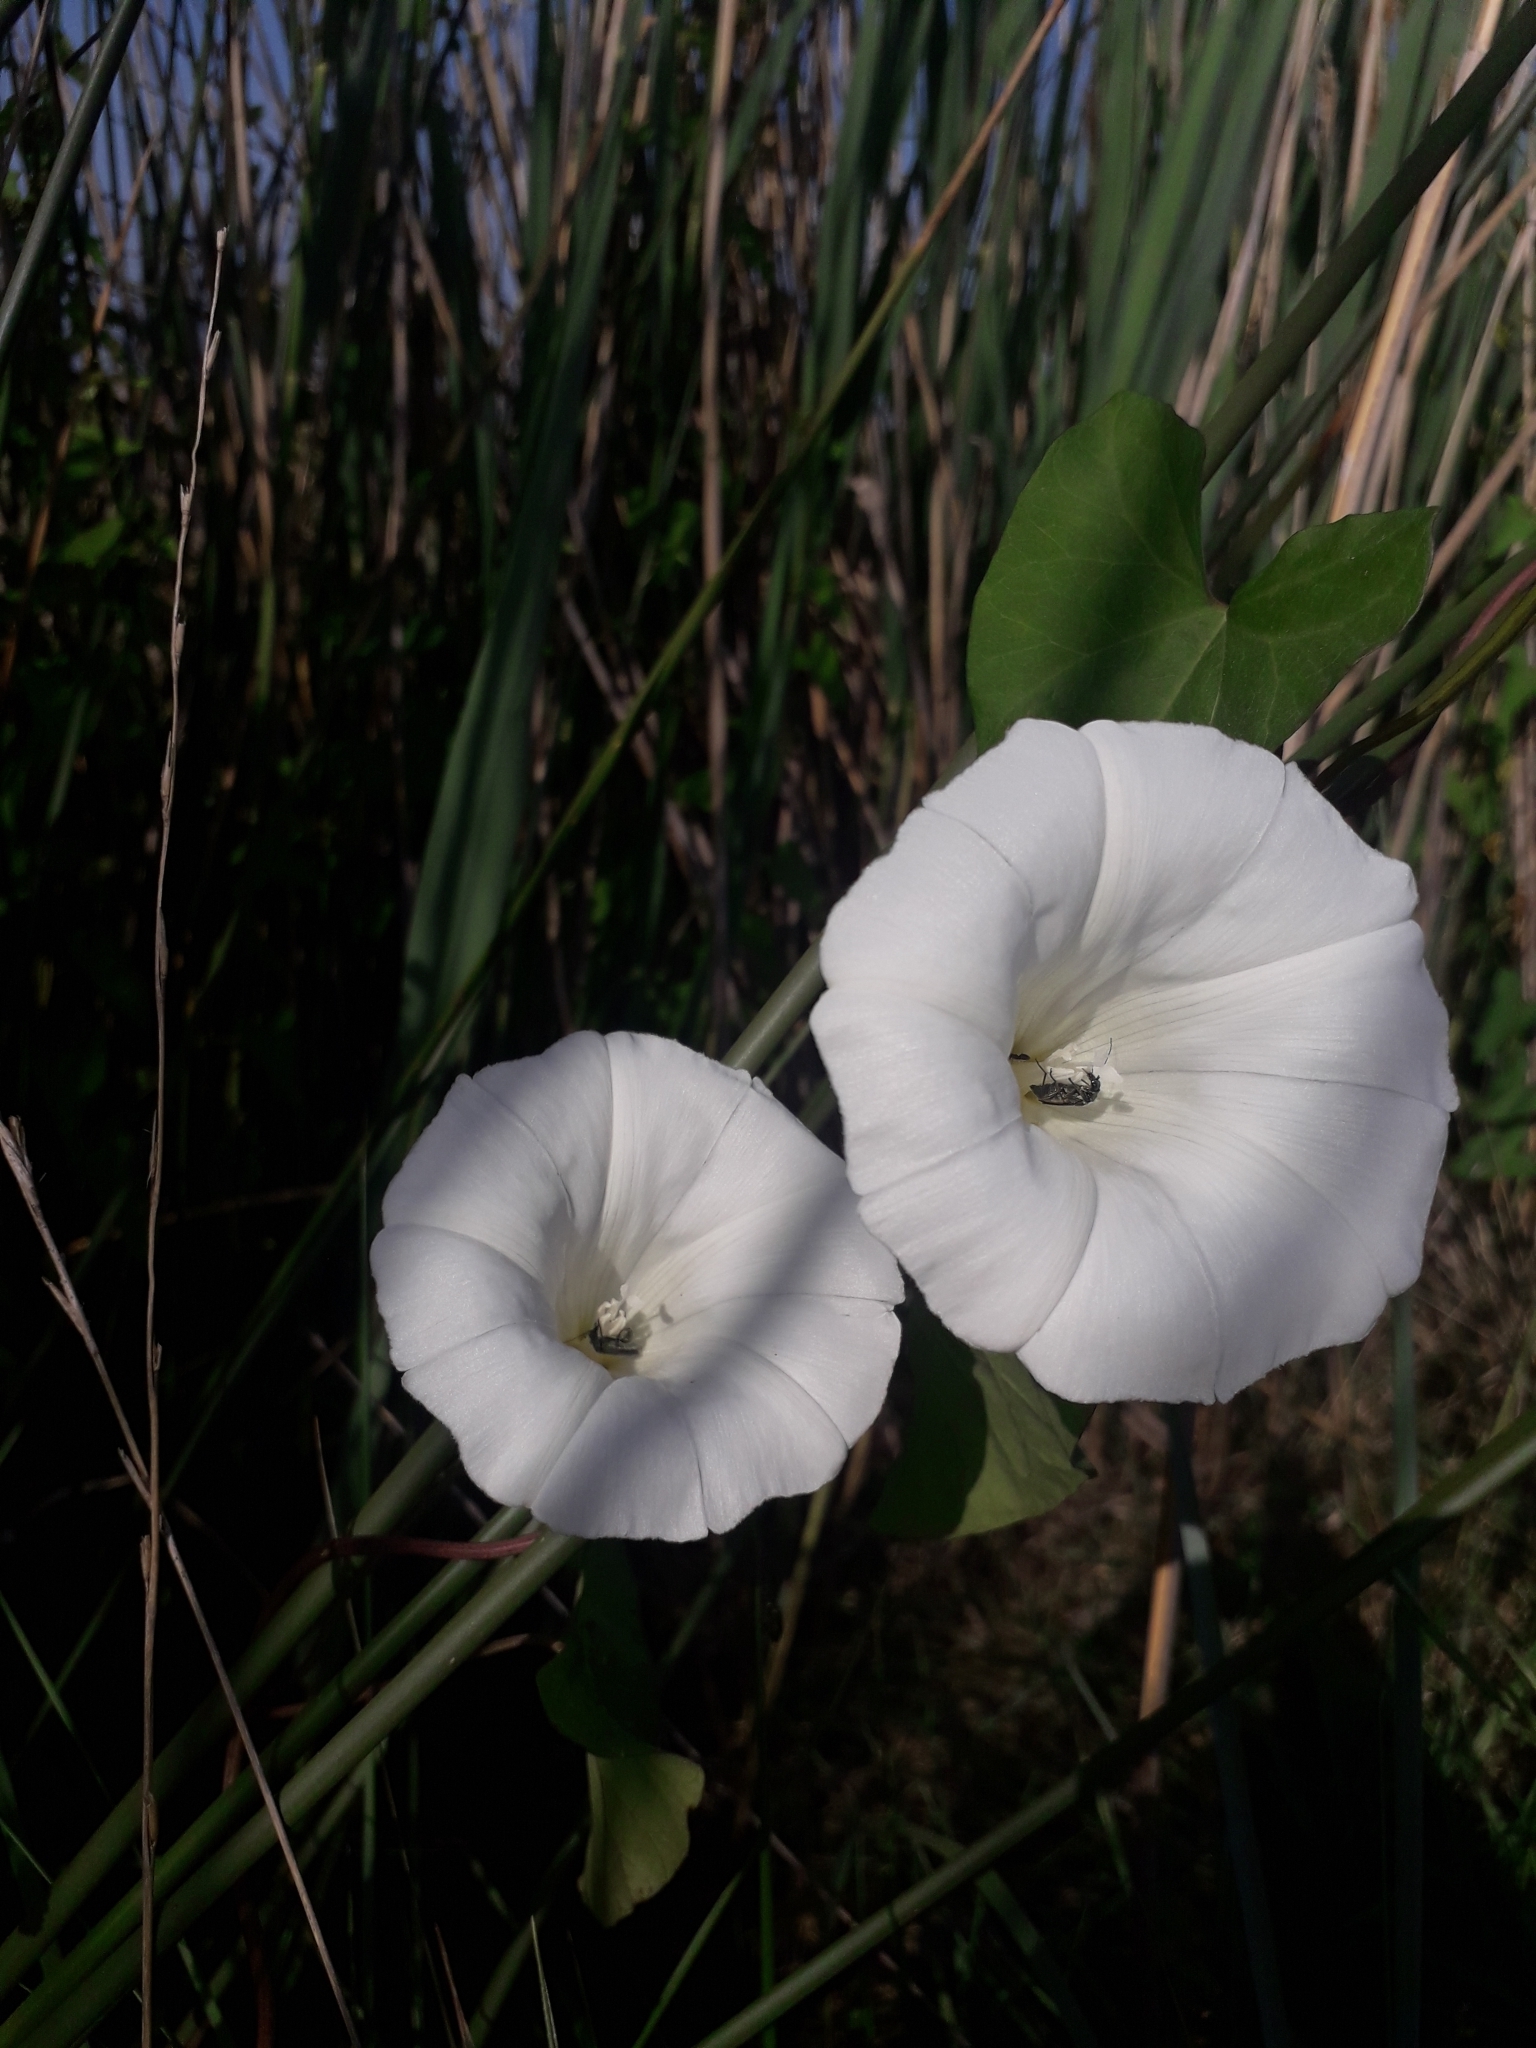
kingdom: Plantae
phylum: Tracheophyta
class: Magnoliopsida
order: Solanales
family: Convolvulaceae
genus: Calystegia
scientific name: Calystegia sepium
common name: Hedge bindweed
